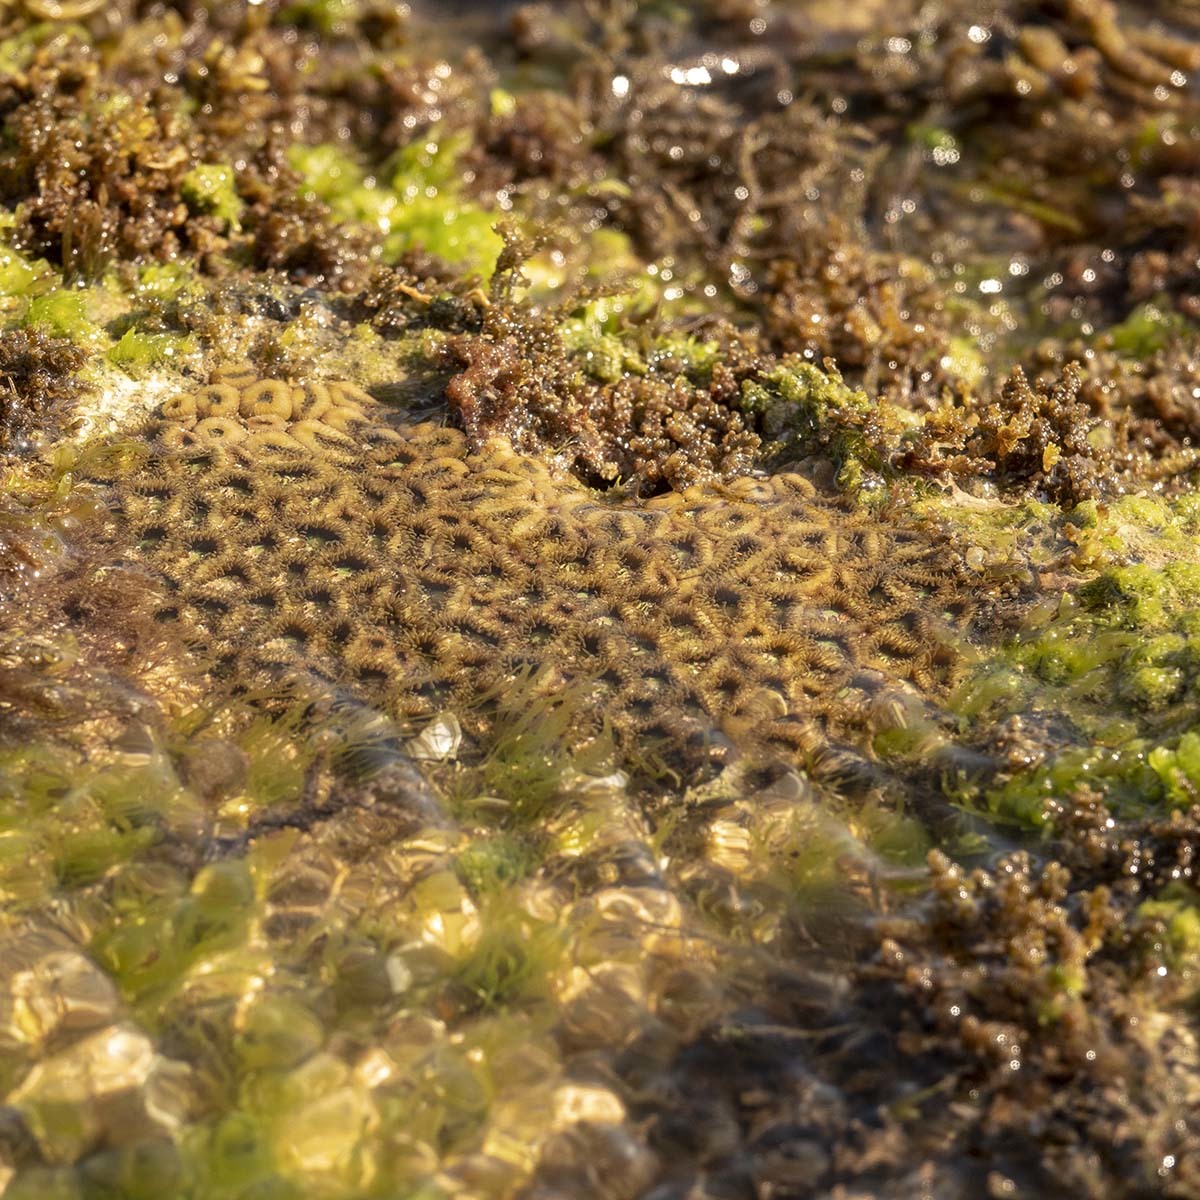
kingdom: Animalia
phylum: Cnidaria
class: Anthozoa
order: Zoantharia
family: Sphenopidae
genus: Palythoa
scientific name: Palythoa mutuki
